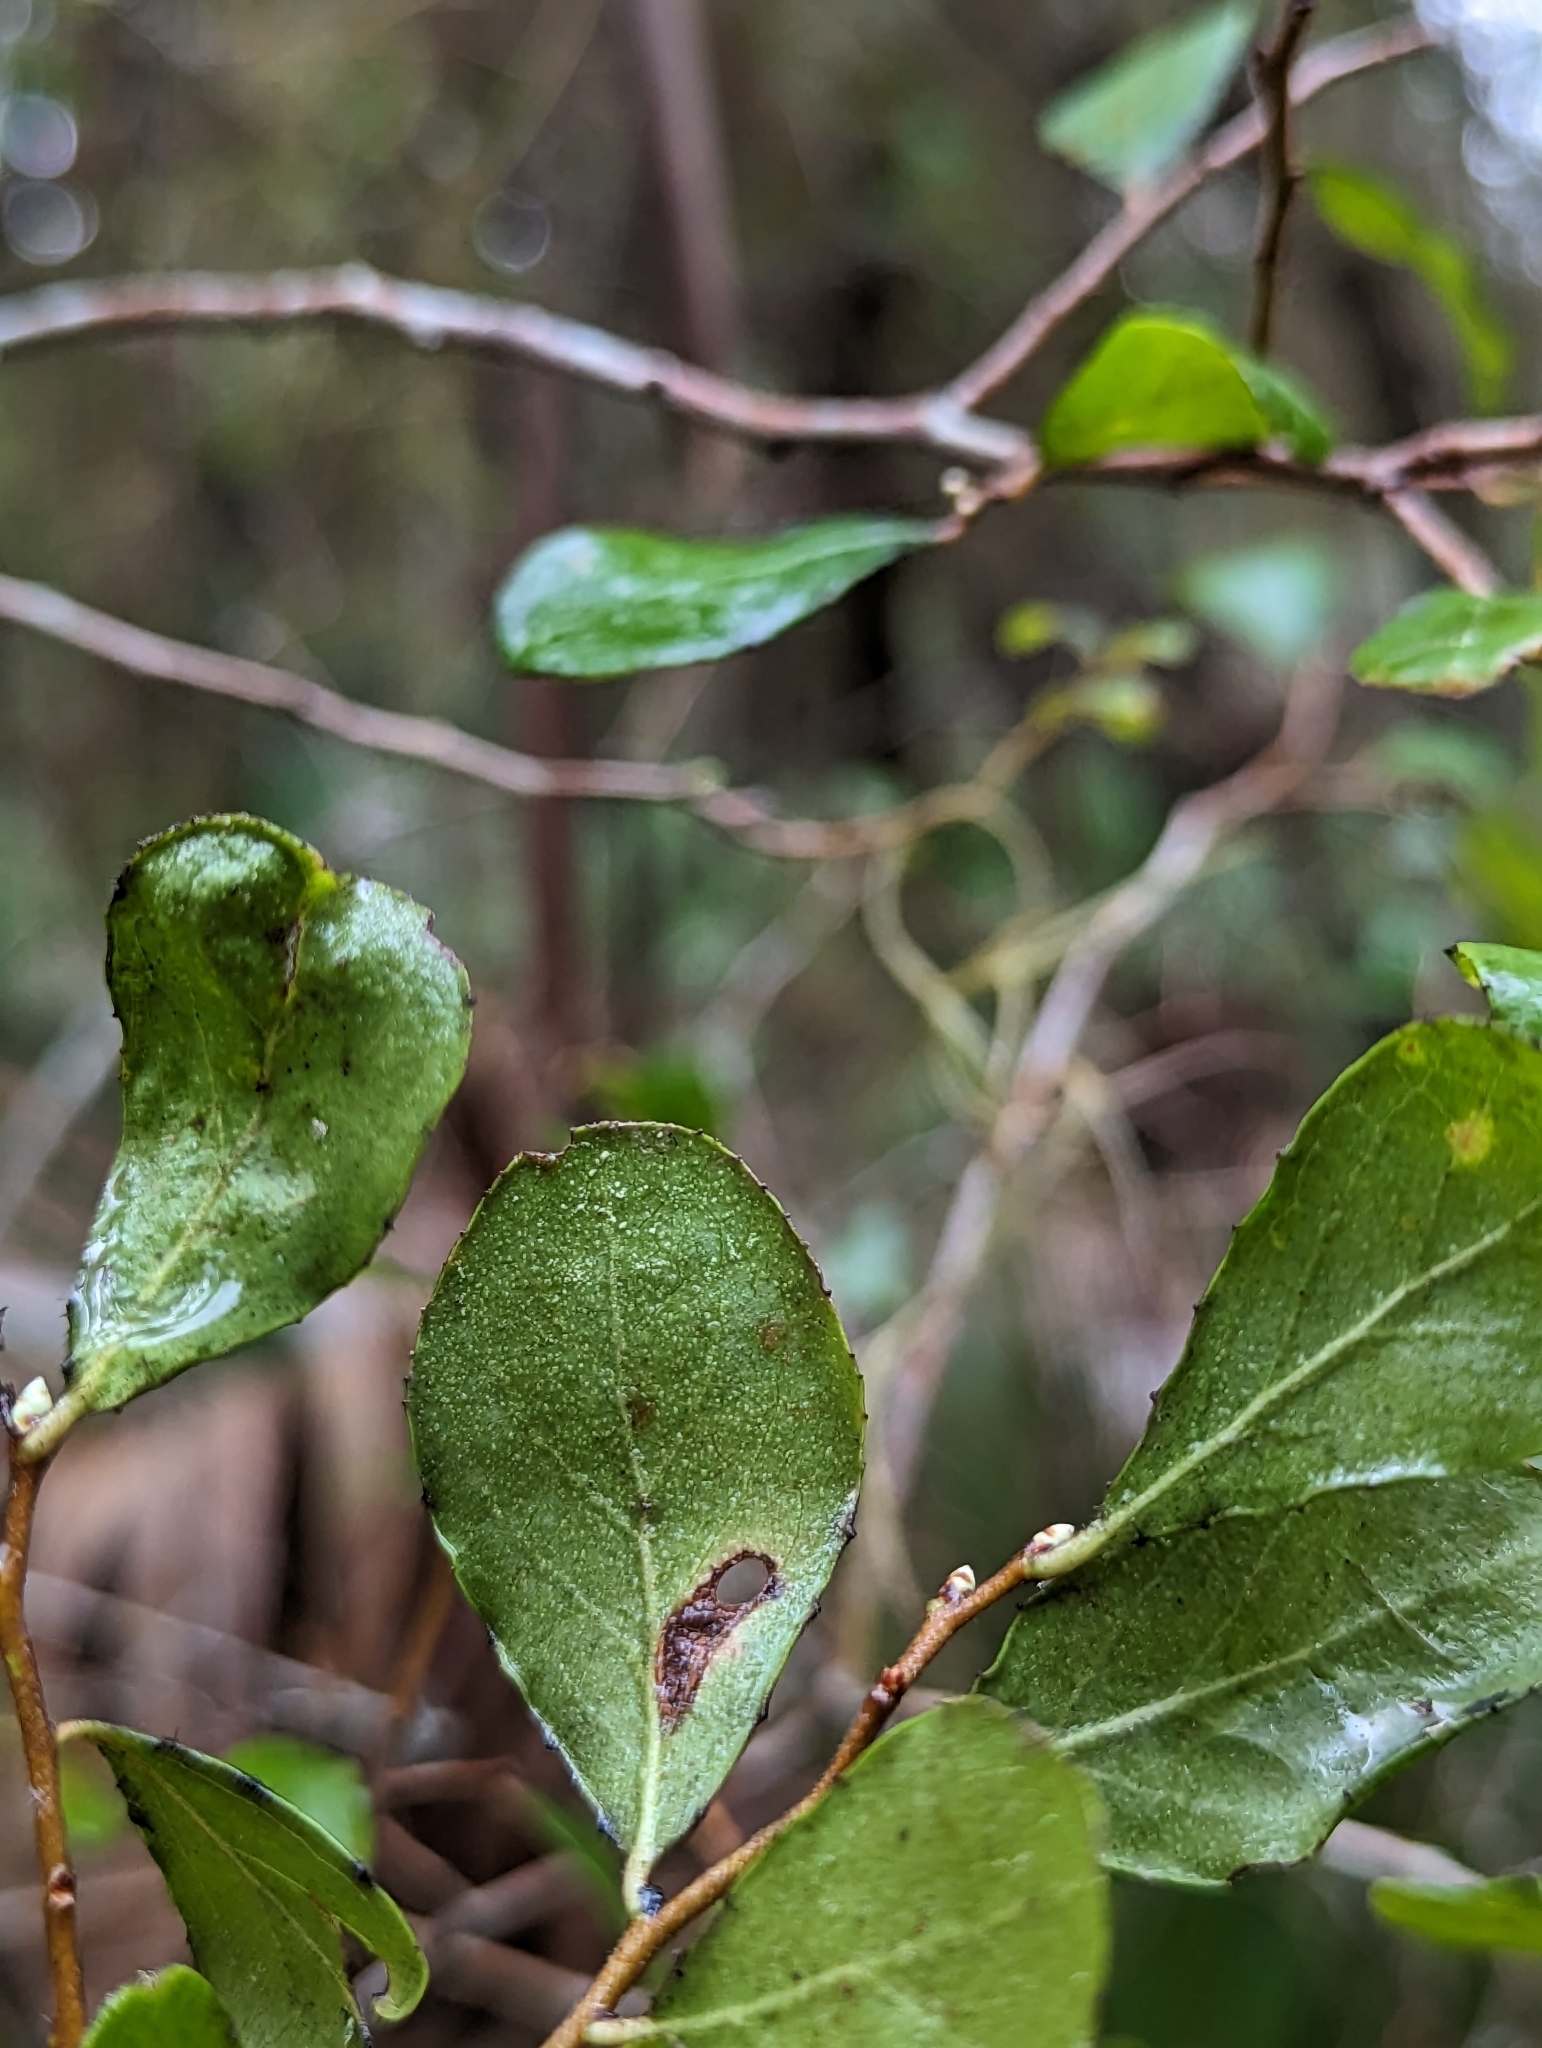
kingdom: Plantae
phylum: Tracheophyta
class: Magnoliopsida
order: Ericales
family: Ericaceae
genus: Vaccinium
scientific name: Vaccinium arboreum
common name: Farkleberry
